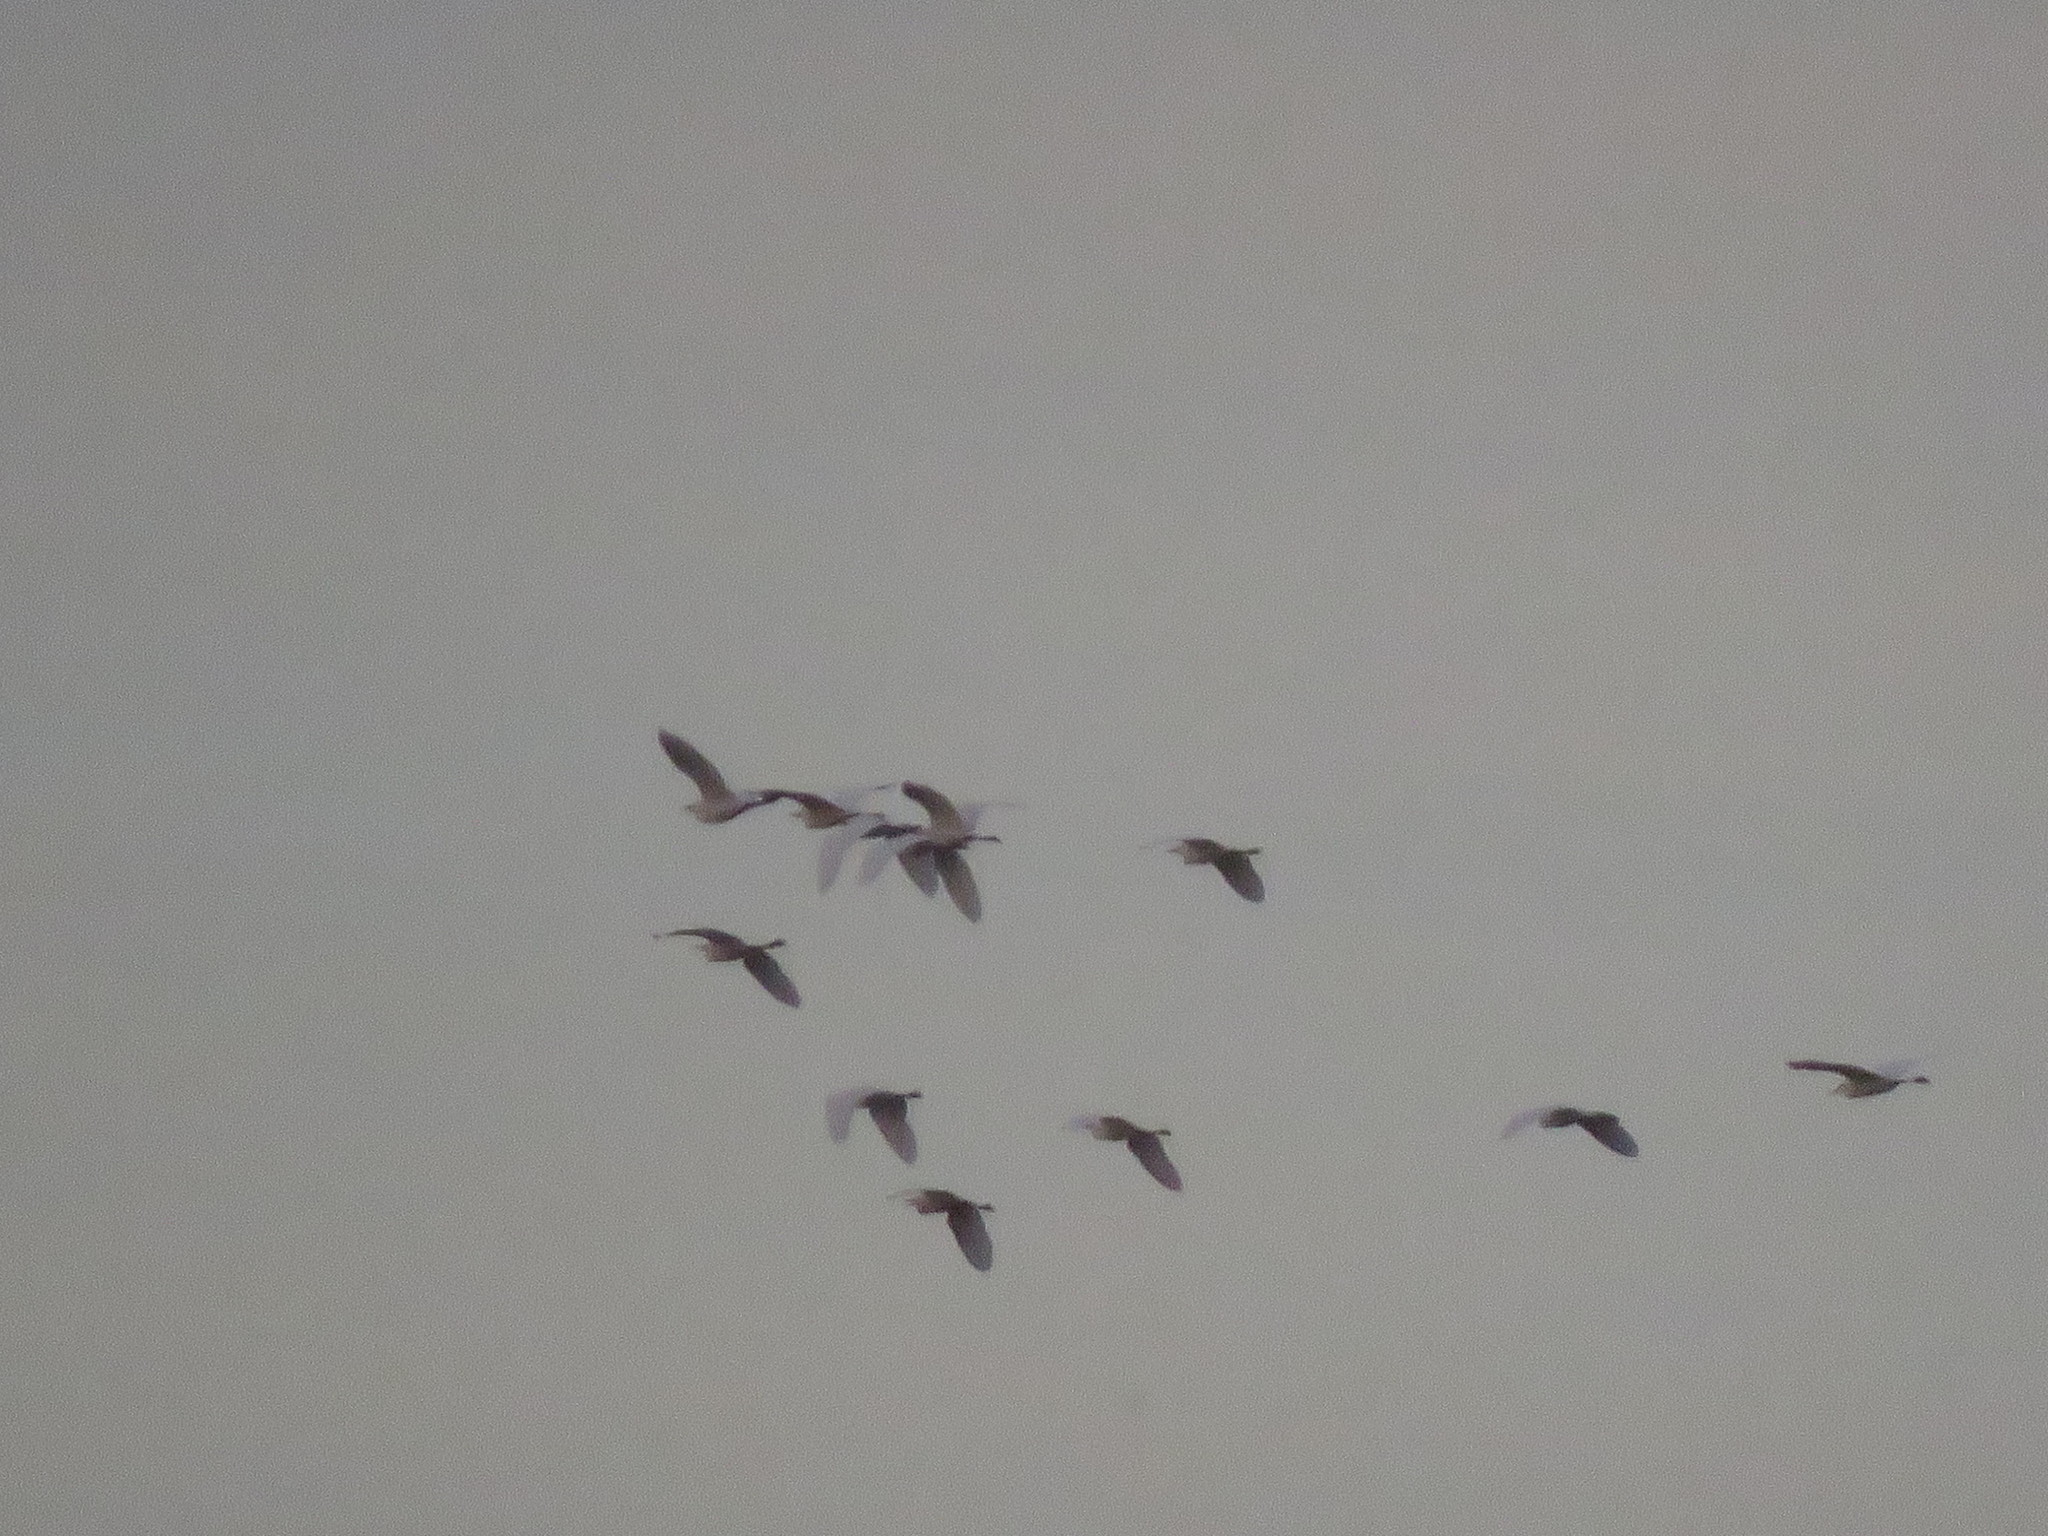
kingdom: Animalia
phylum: Chordata
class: Aves
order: Pelecaniformes
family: Ardeidae
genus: Bubulcus
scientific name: Bubulcus ibis
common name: Cattle egret
